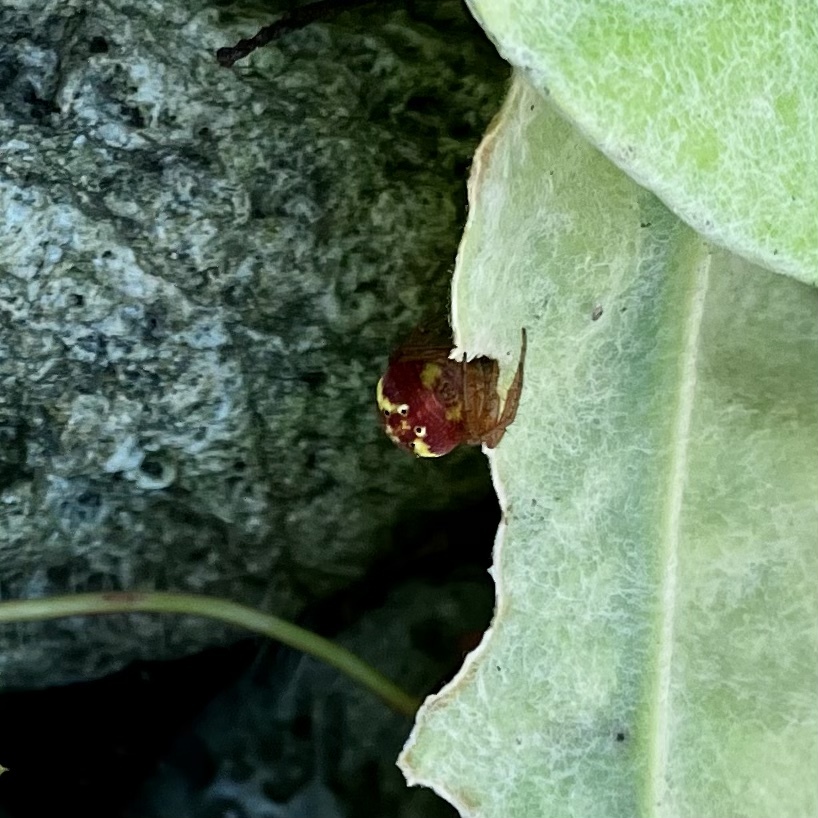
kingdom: Animalia
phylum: Arthropoda
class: Arachnida
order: Araneae
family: Araneidae
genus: Araniella
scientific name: Araniella displicata
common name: Sixspotted orb weaver
